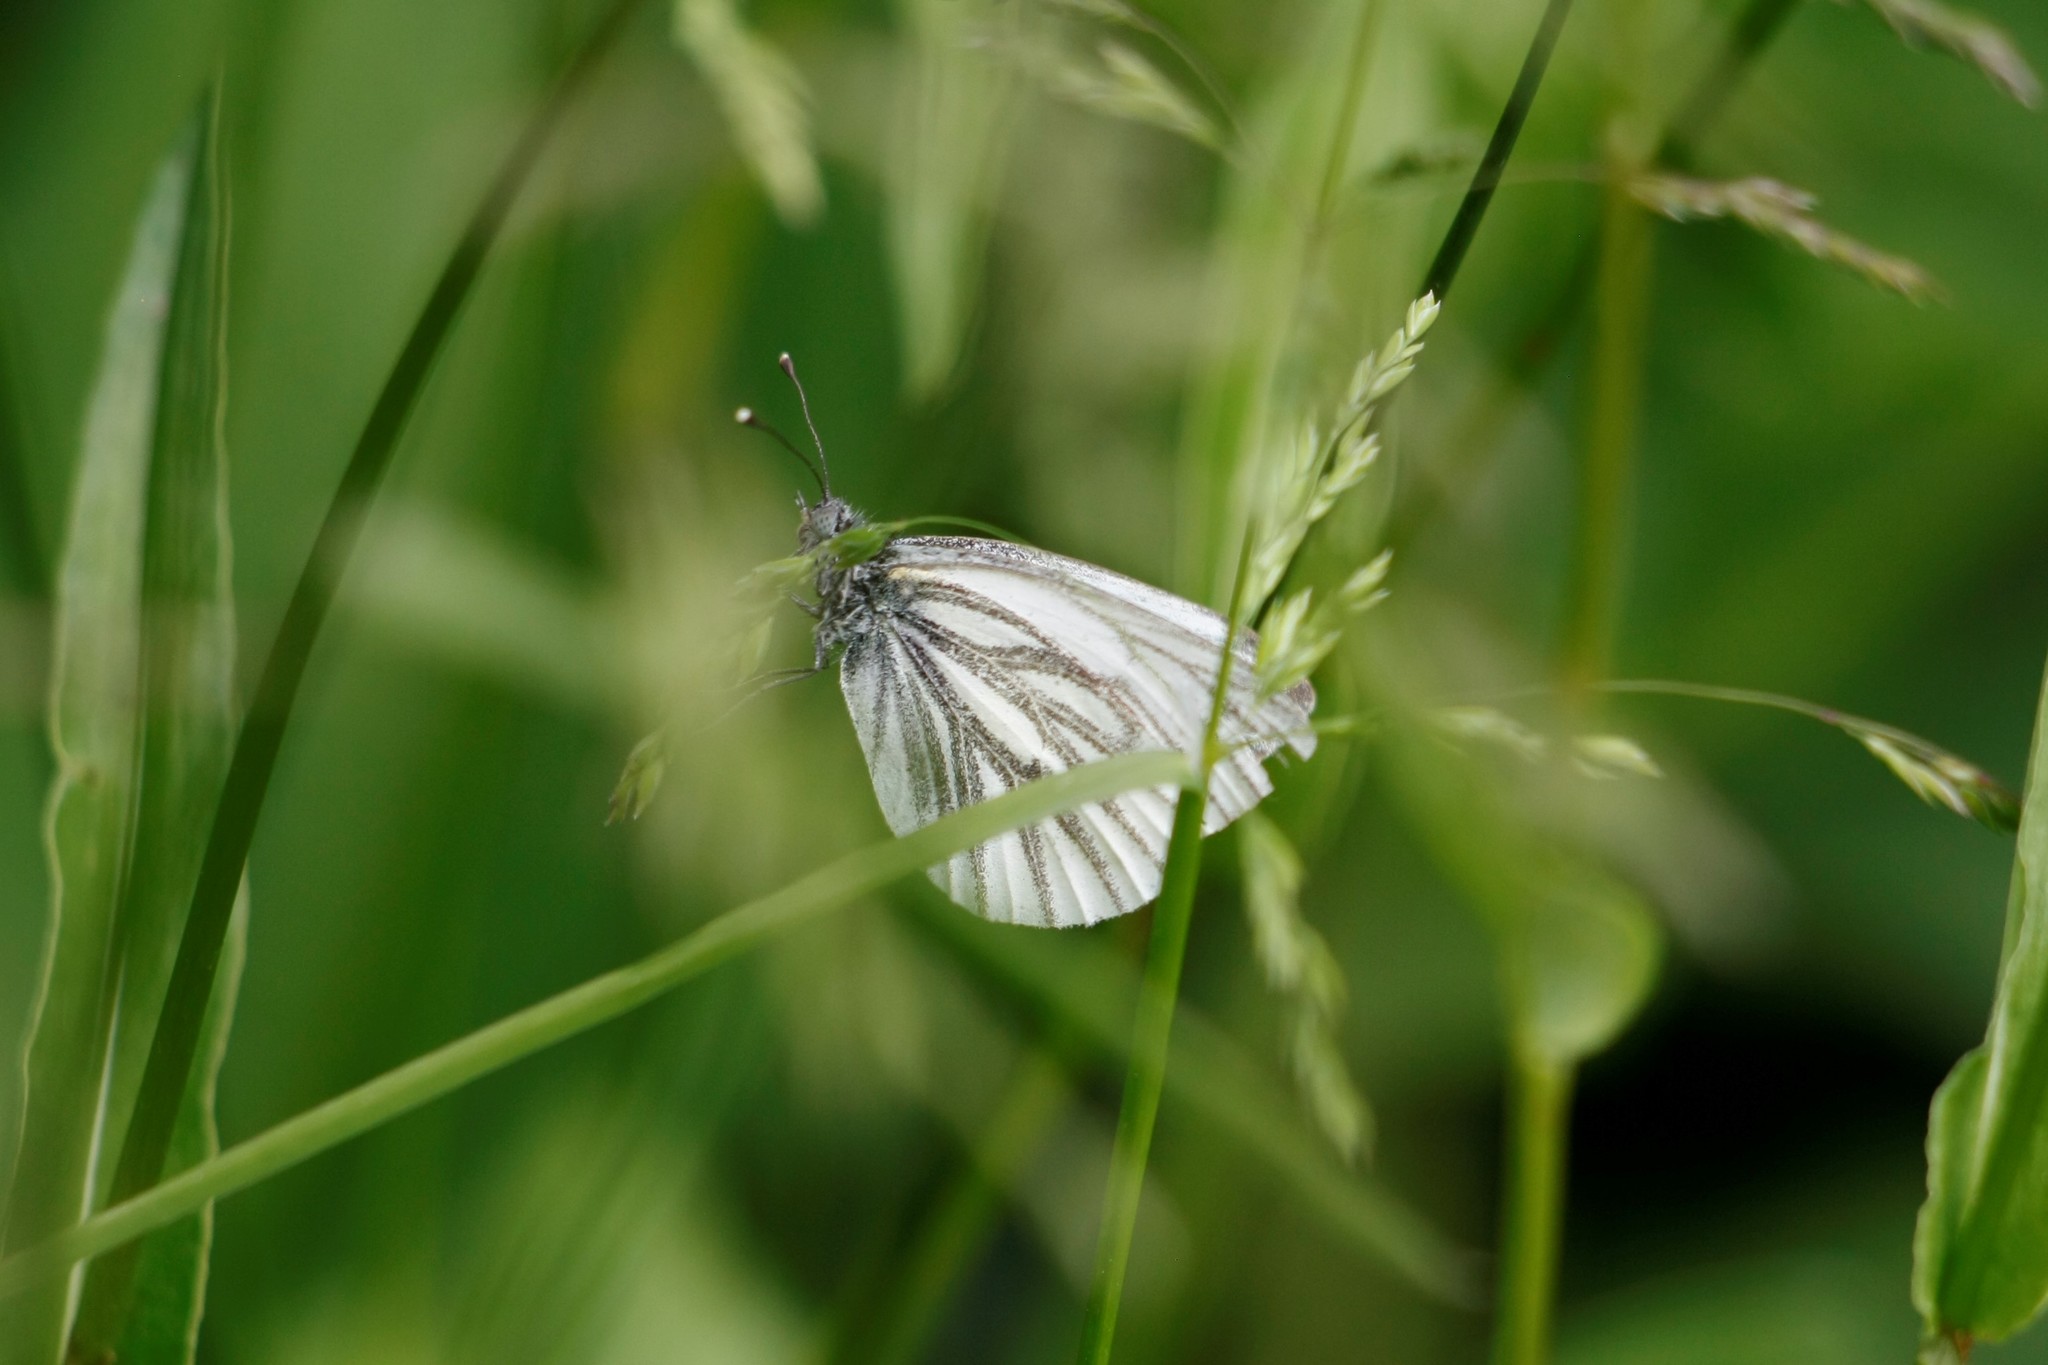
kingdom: Animalia
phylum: Arthropoda
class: Insecta
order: Lepidoptera
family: Pieridae
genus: Pieris
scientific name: Pieris napi
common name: Green-veined white
